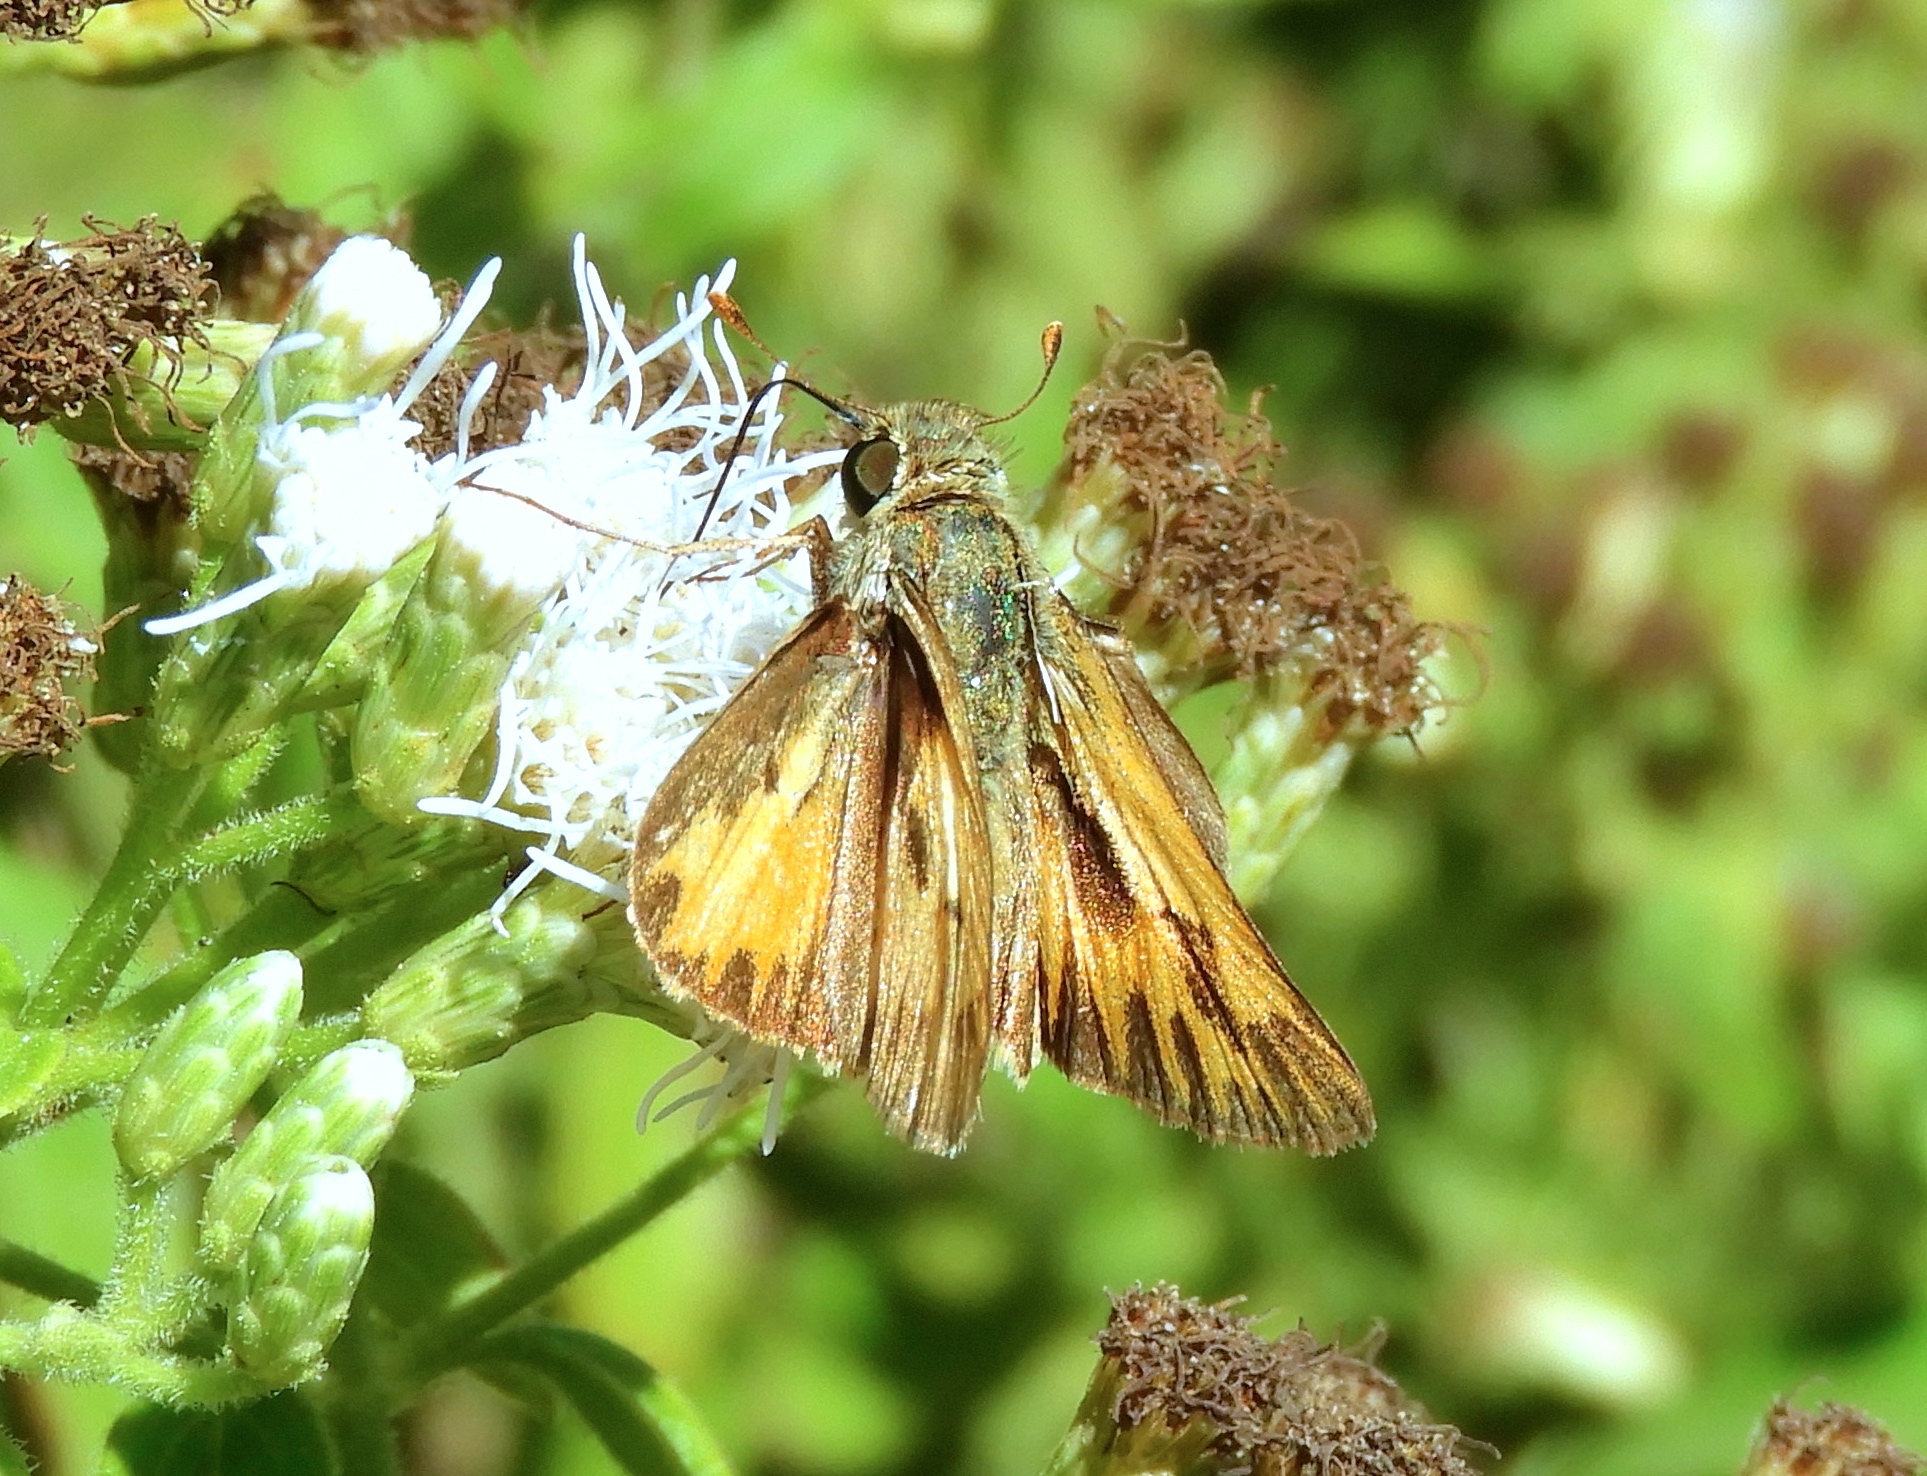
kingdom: Animalia
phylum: Arthropoda
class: Insecta
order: Lepidoptera
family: Hesperiidae
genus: Hylephila
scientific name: Hylephila phyleus
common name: Fiery skipper
